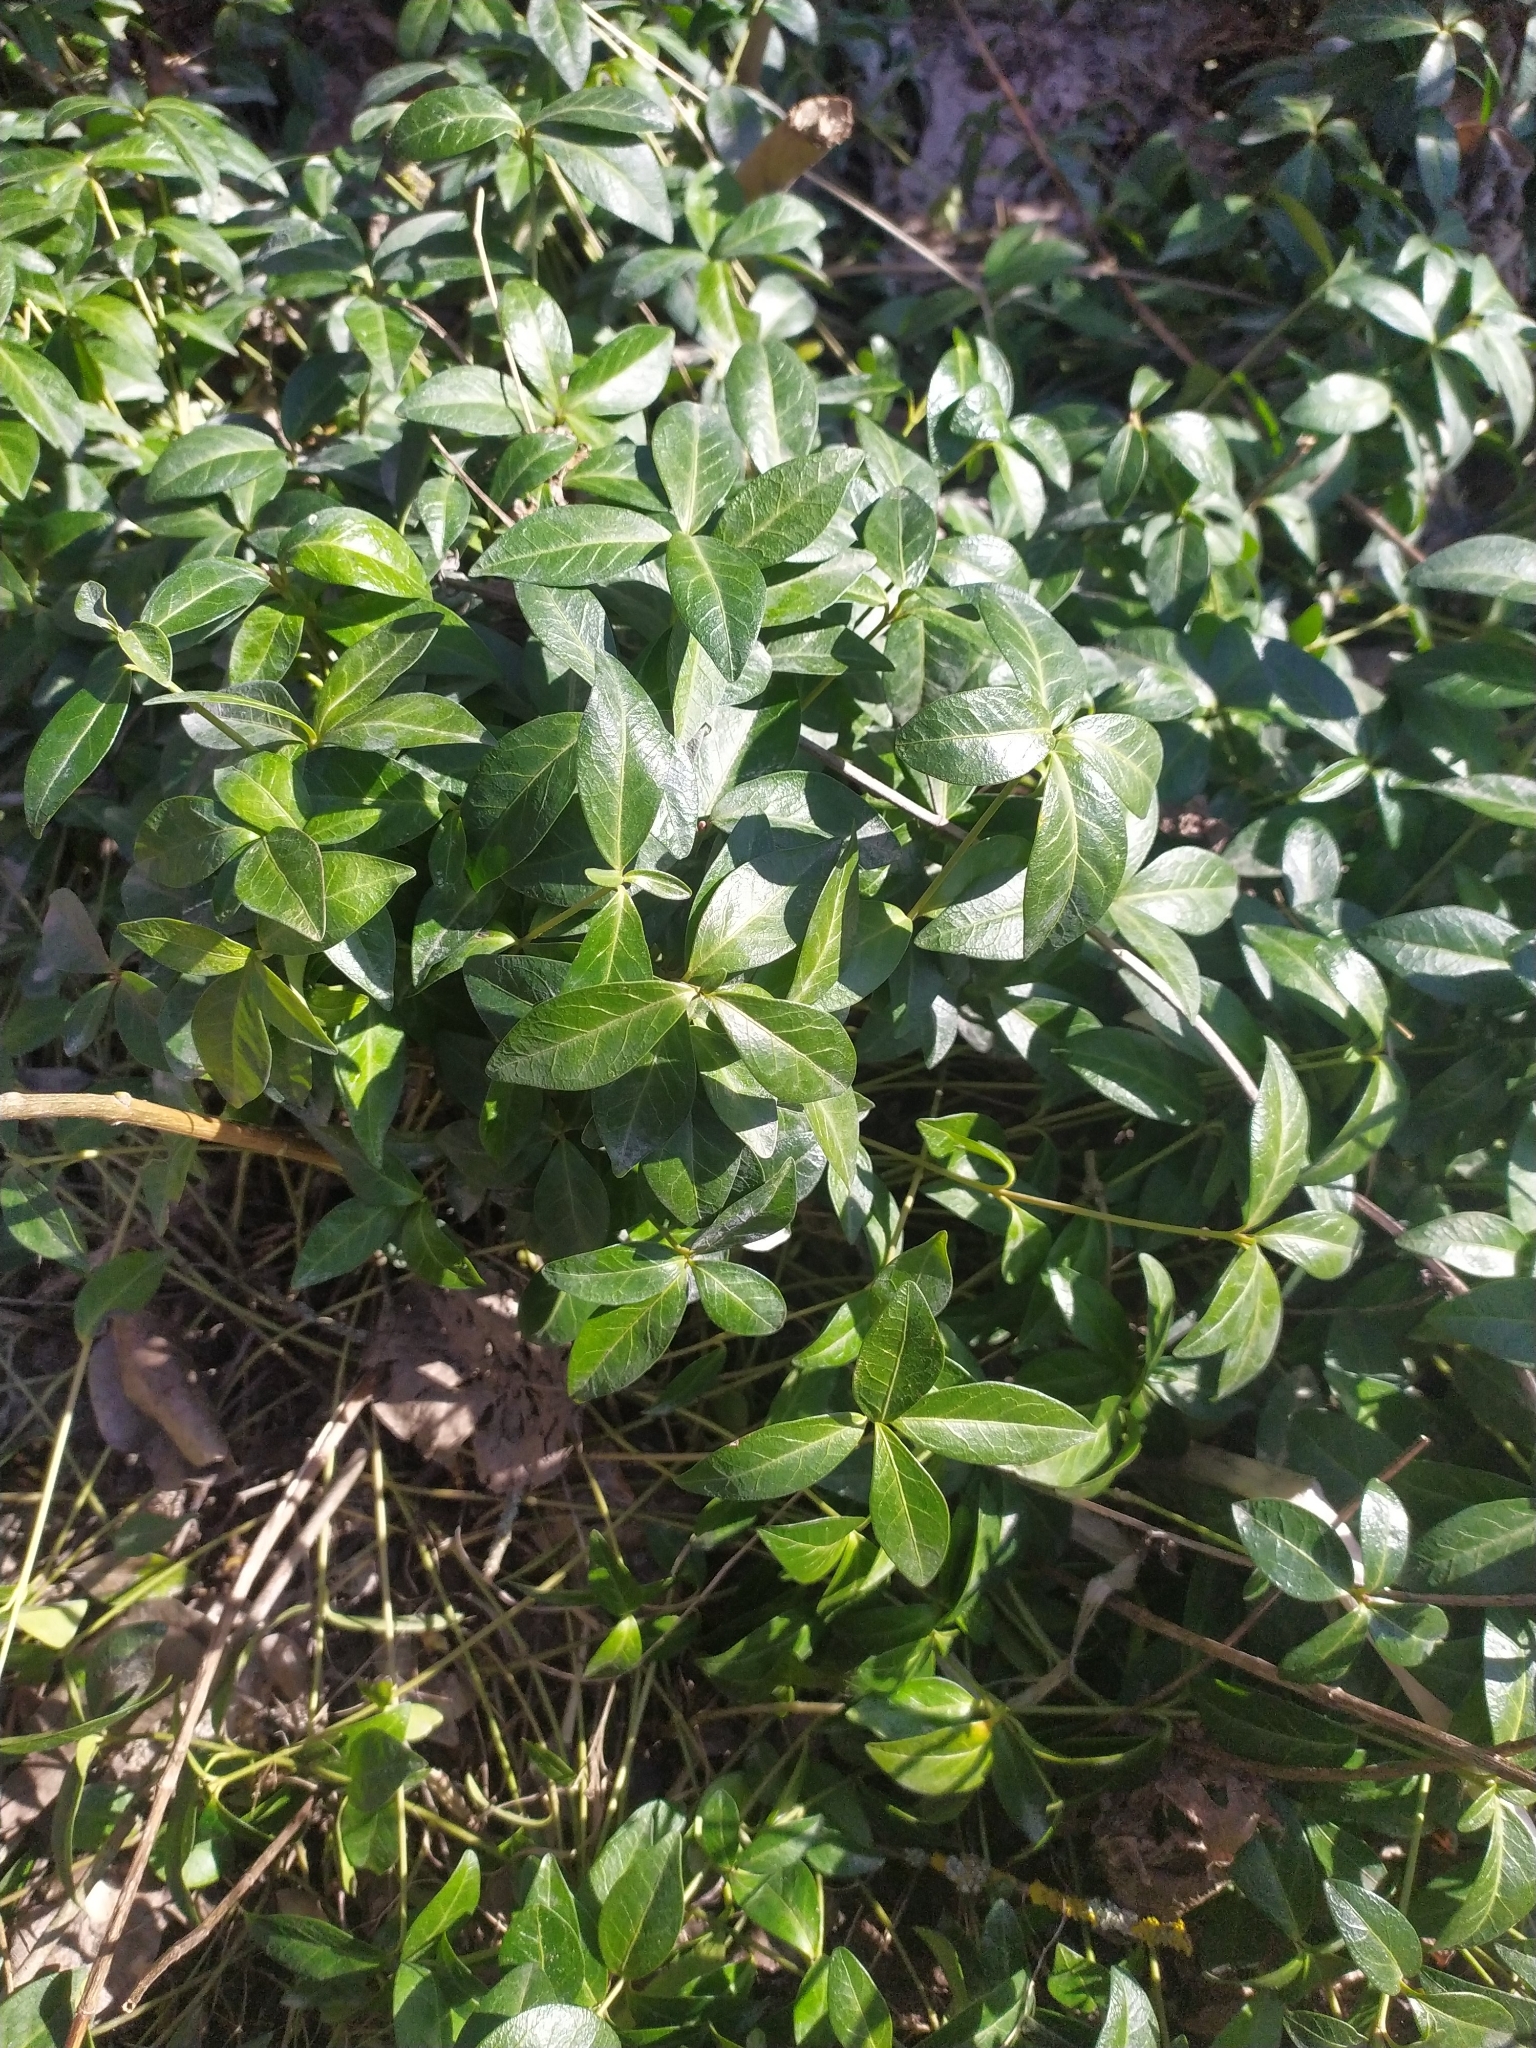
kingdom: Plantae
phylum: Tracheophyta
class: Magnoliopsida
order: Gentianales
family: Apocynaceae
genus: Vinca
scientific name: Vinca minor
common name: Lesser periwinkle
